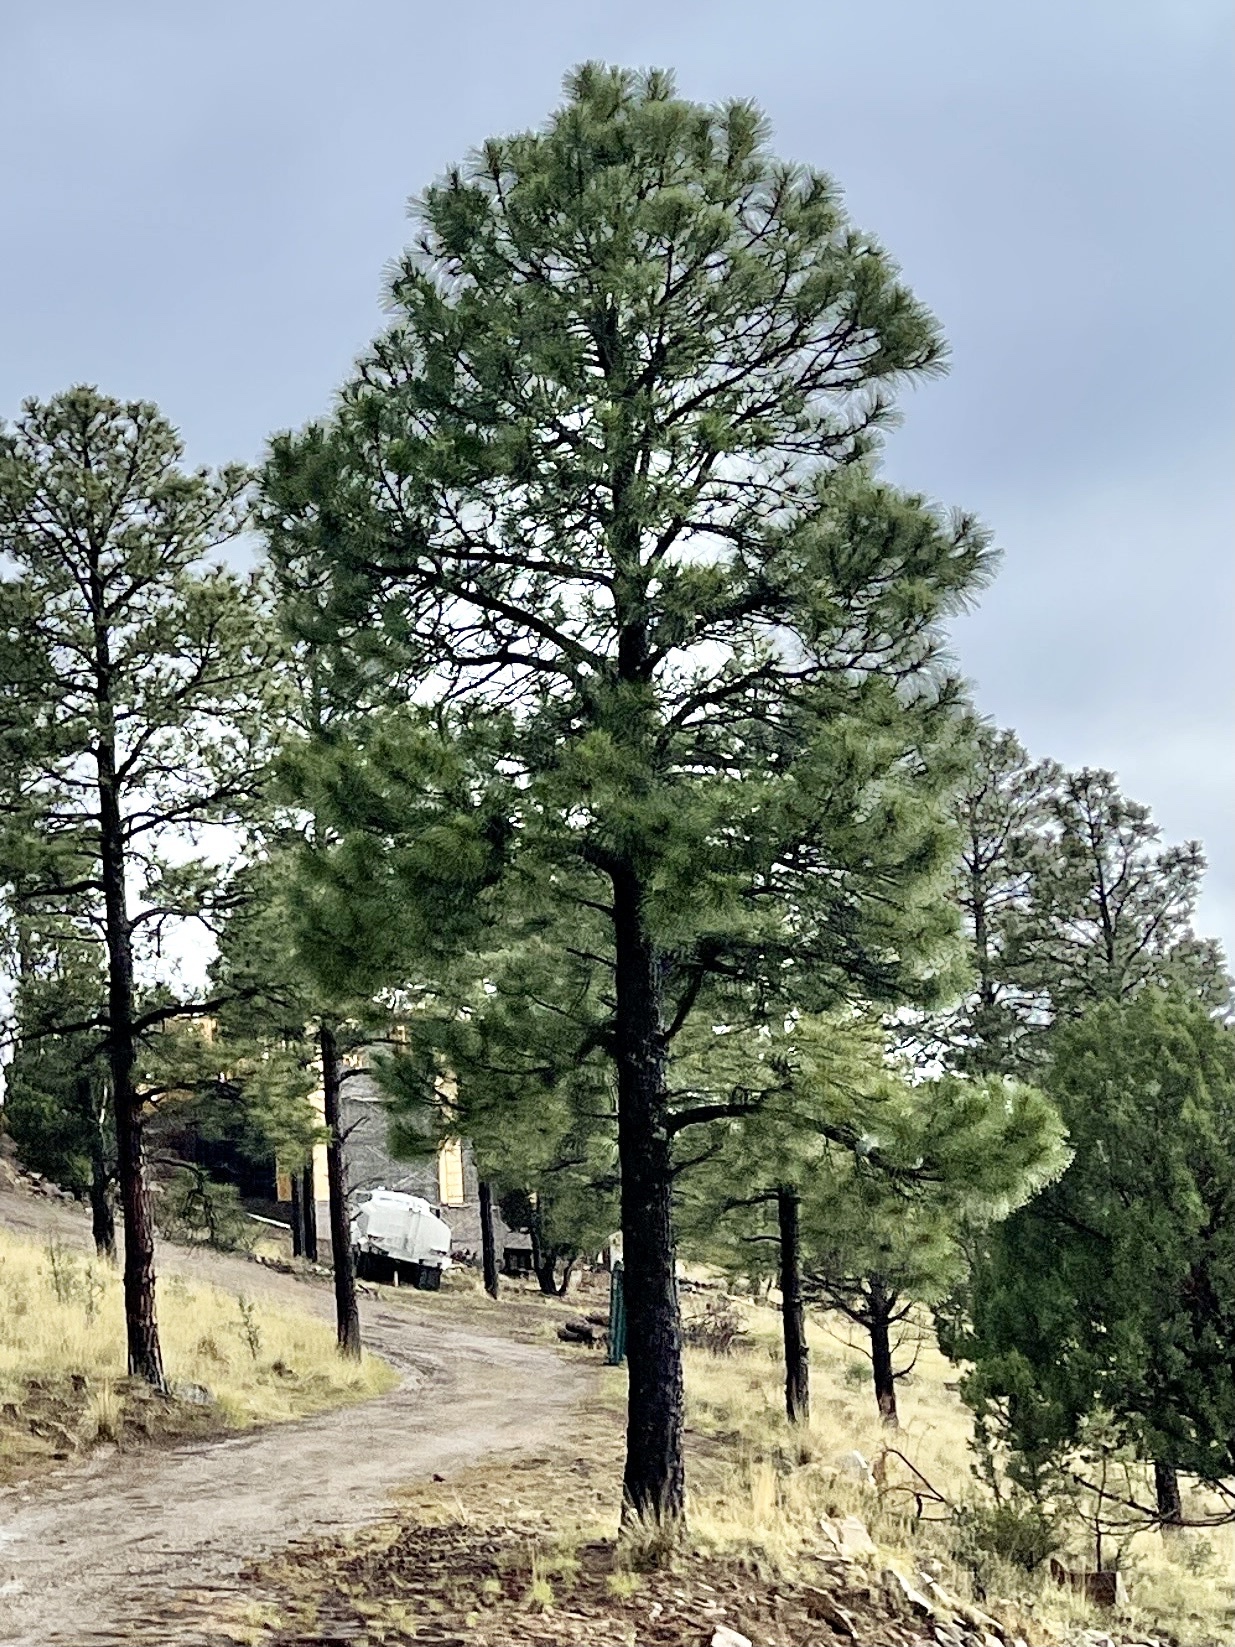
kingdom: Plantae
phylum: Tracheophyta
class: Pinopsida
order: Pinales
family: Pinaceae
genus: Pinus
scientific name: Pinus ponderosa
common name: Western yellow-pine
